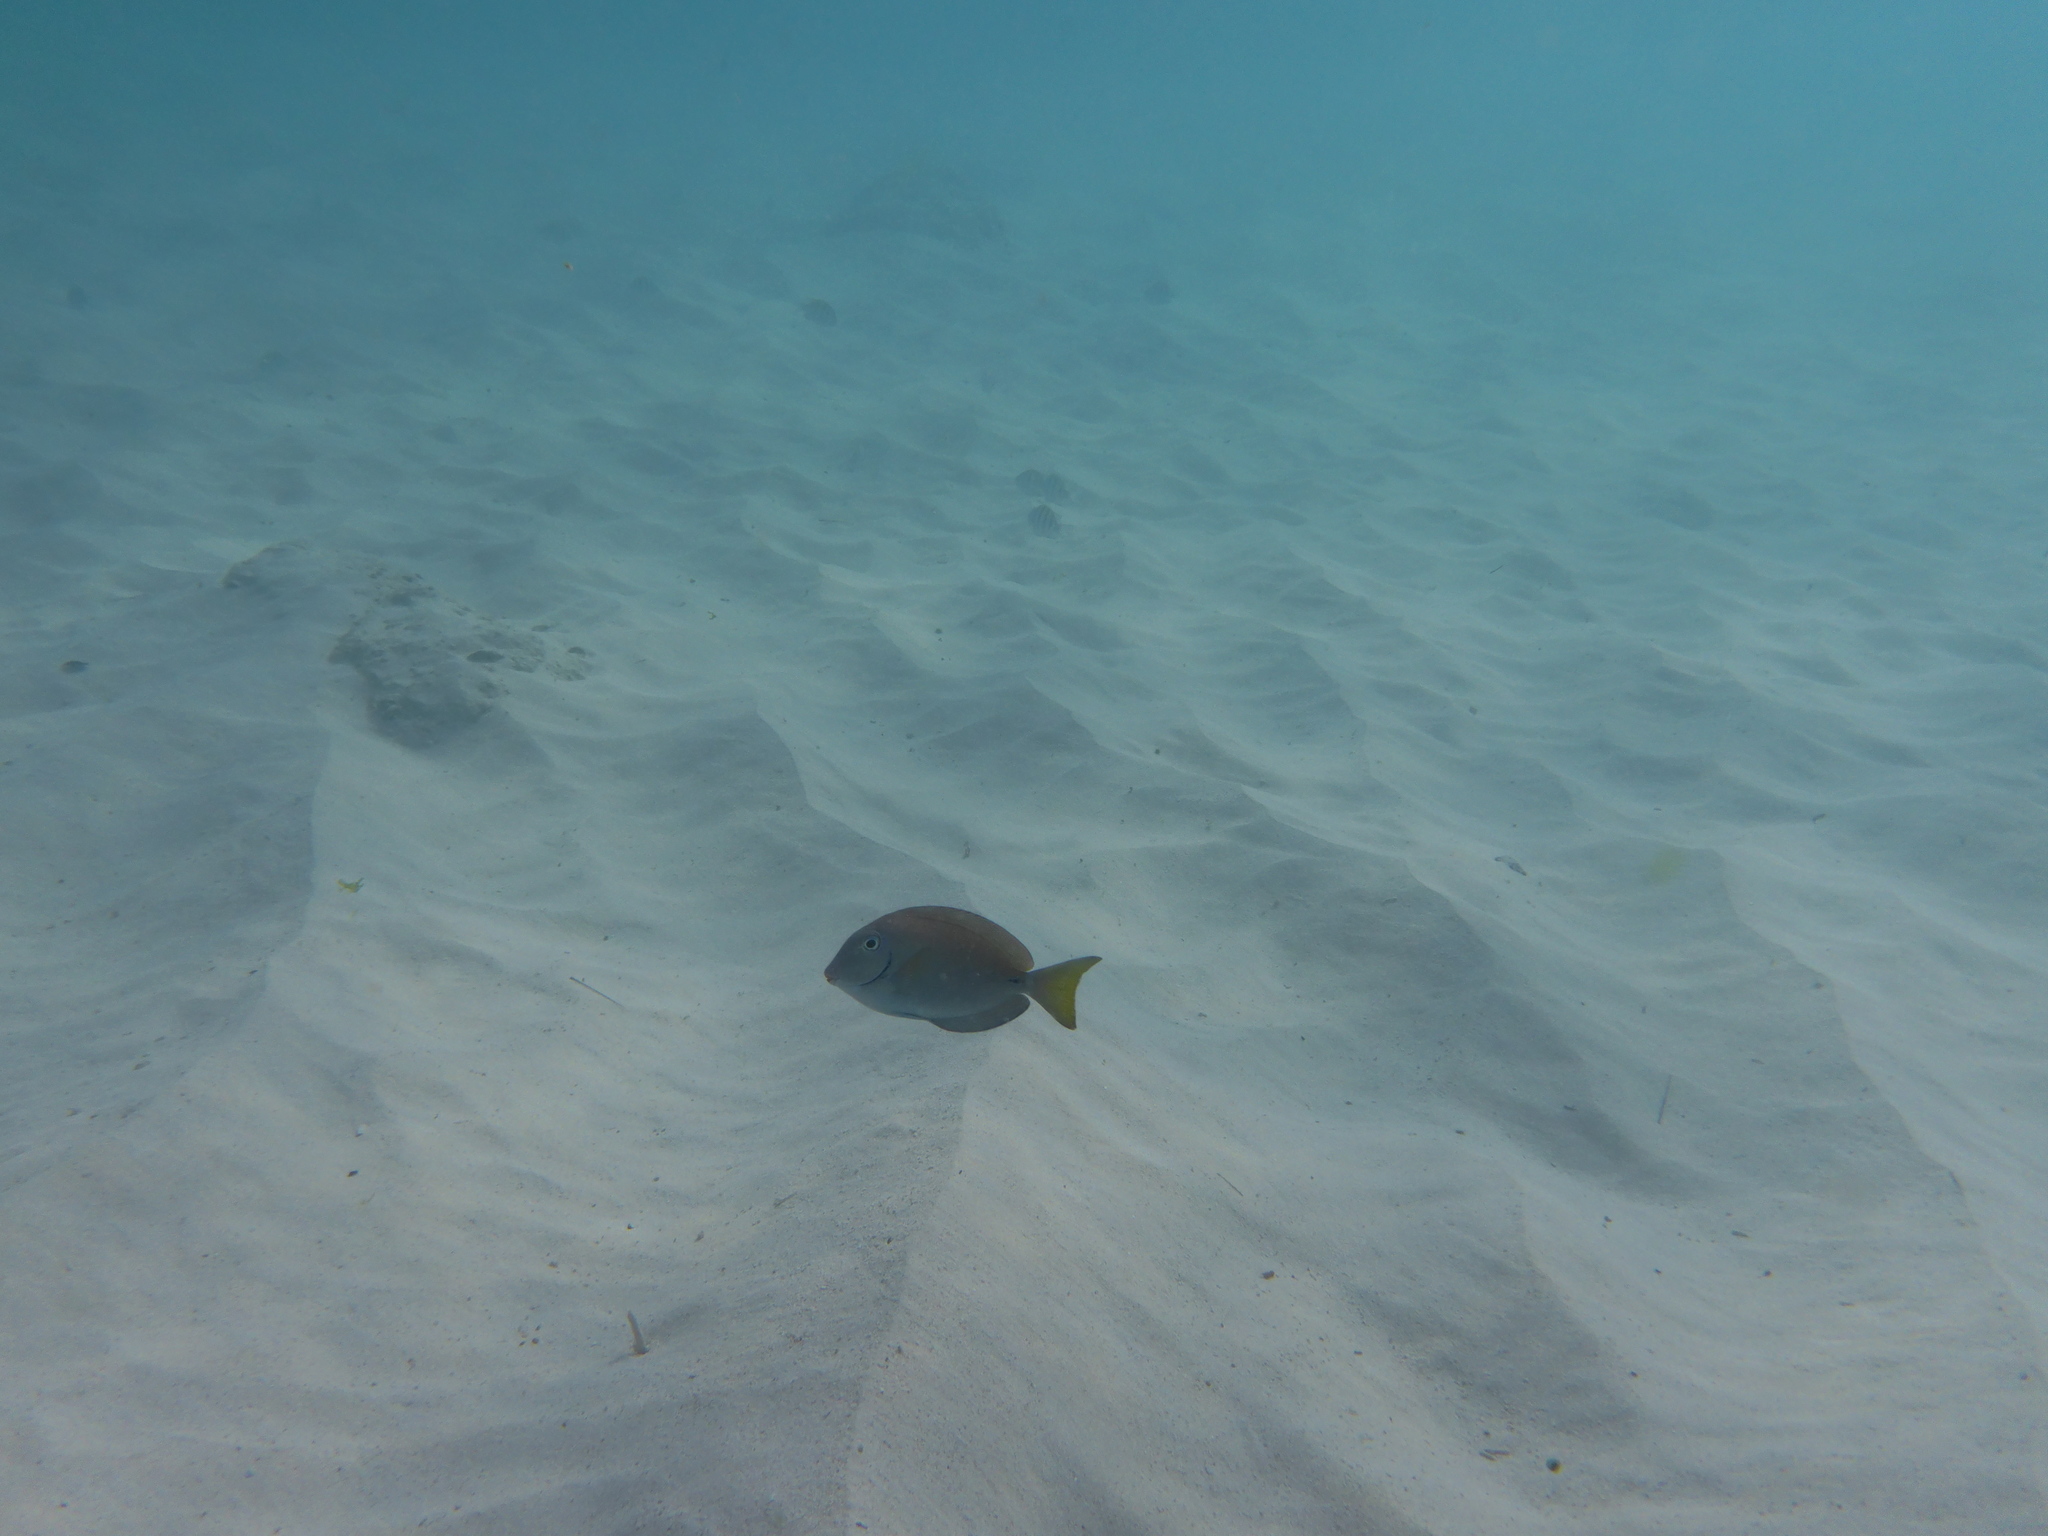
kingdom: Animalia
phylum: Chordata
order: Perciformes
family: Acanthuridae
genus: Acanthurus
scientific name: Acanthurus bahianus
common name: Ocean surgeon
